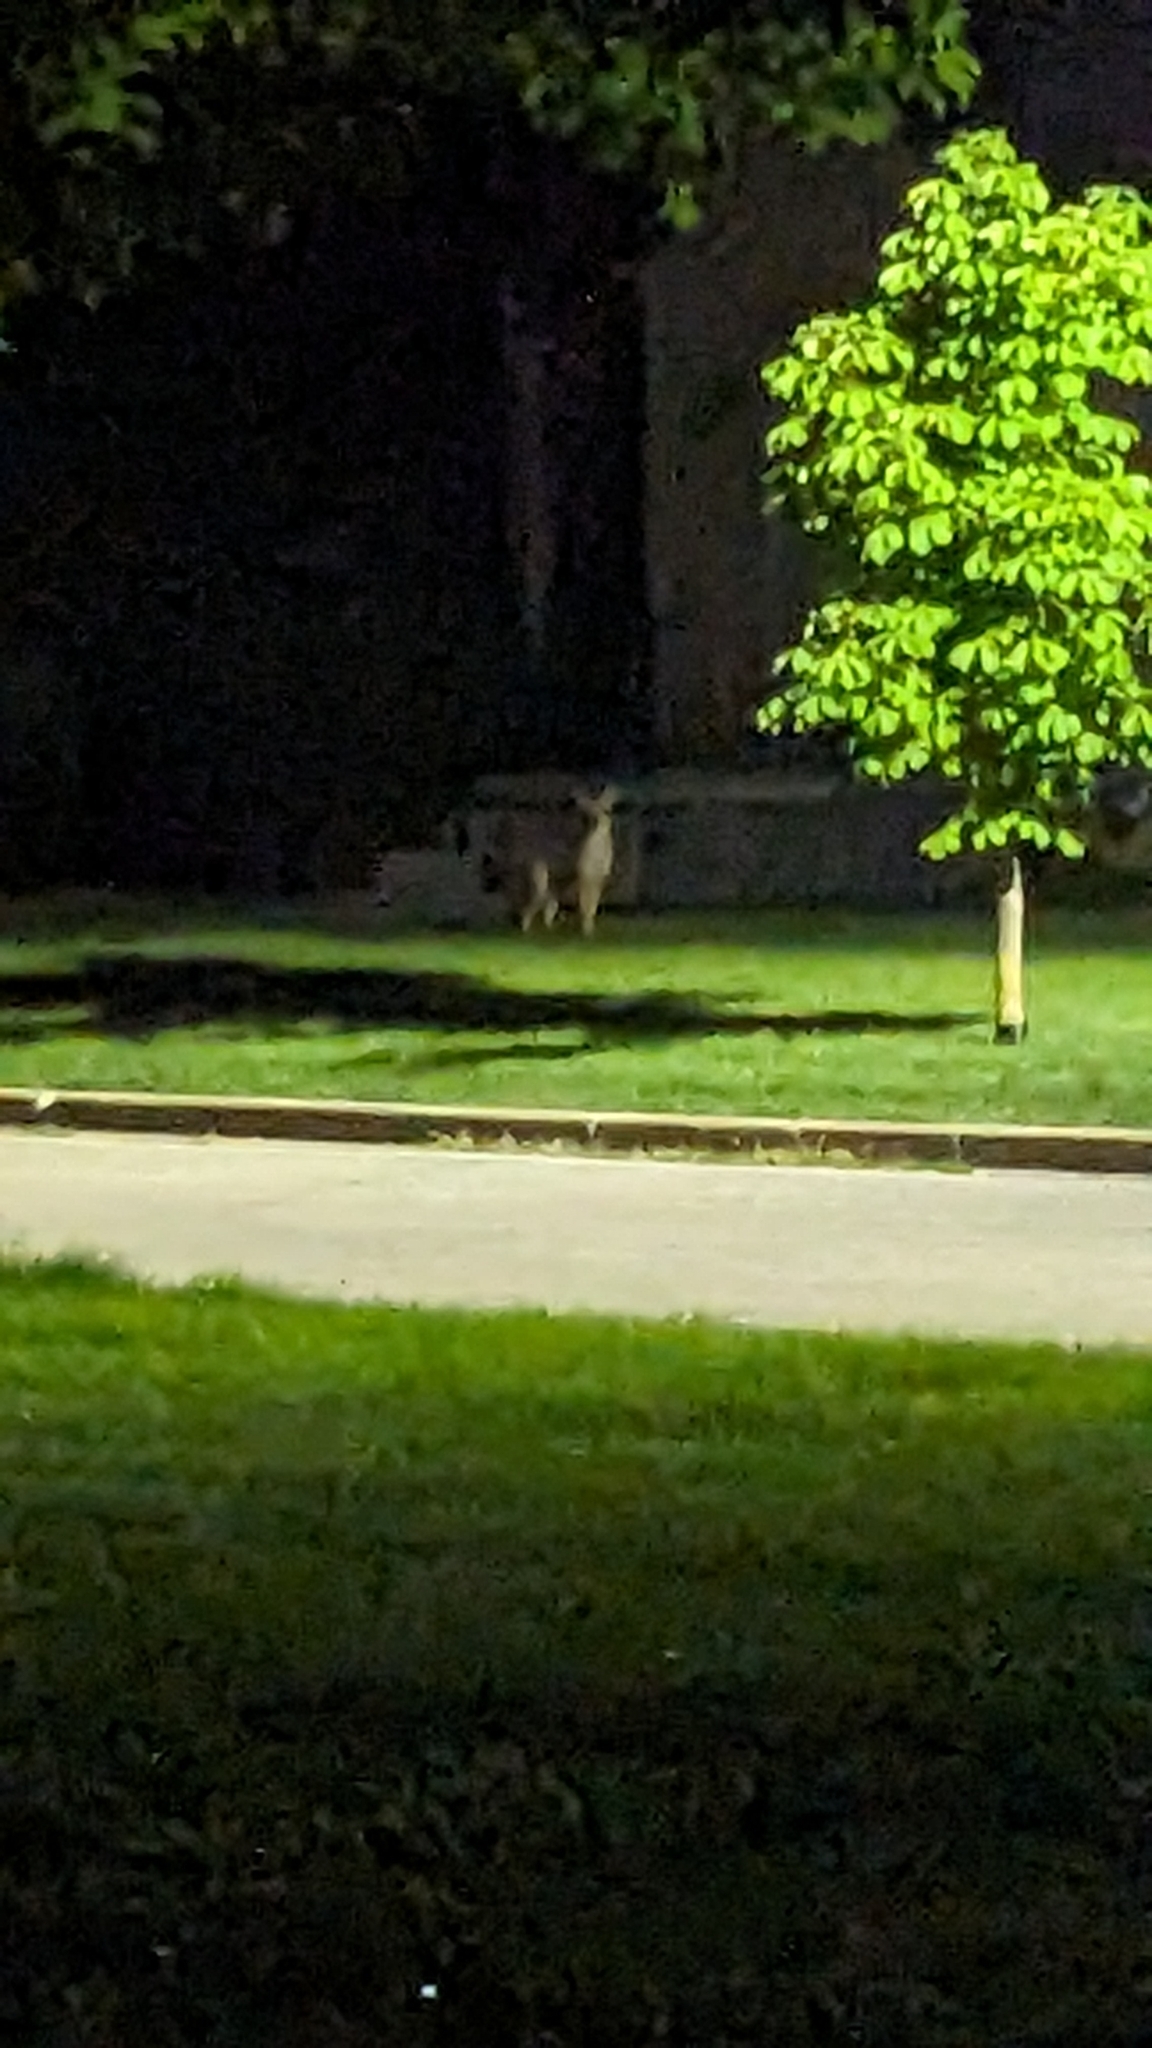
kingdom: Animalia
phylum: Chordata
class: Mammalia
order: Carnivora
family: Canidae
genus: Canis
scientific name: Canis latrans
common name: Coyote
